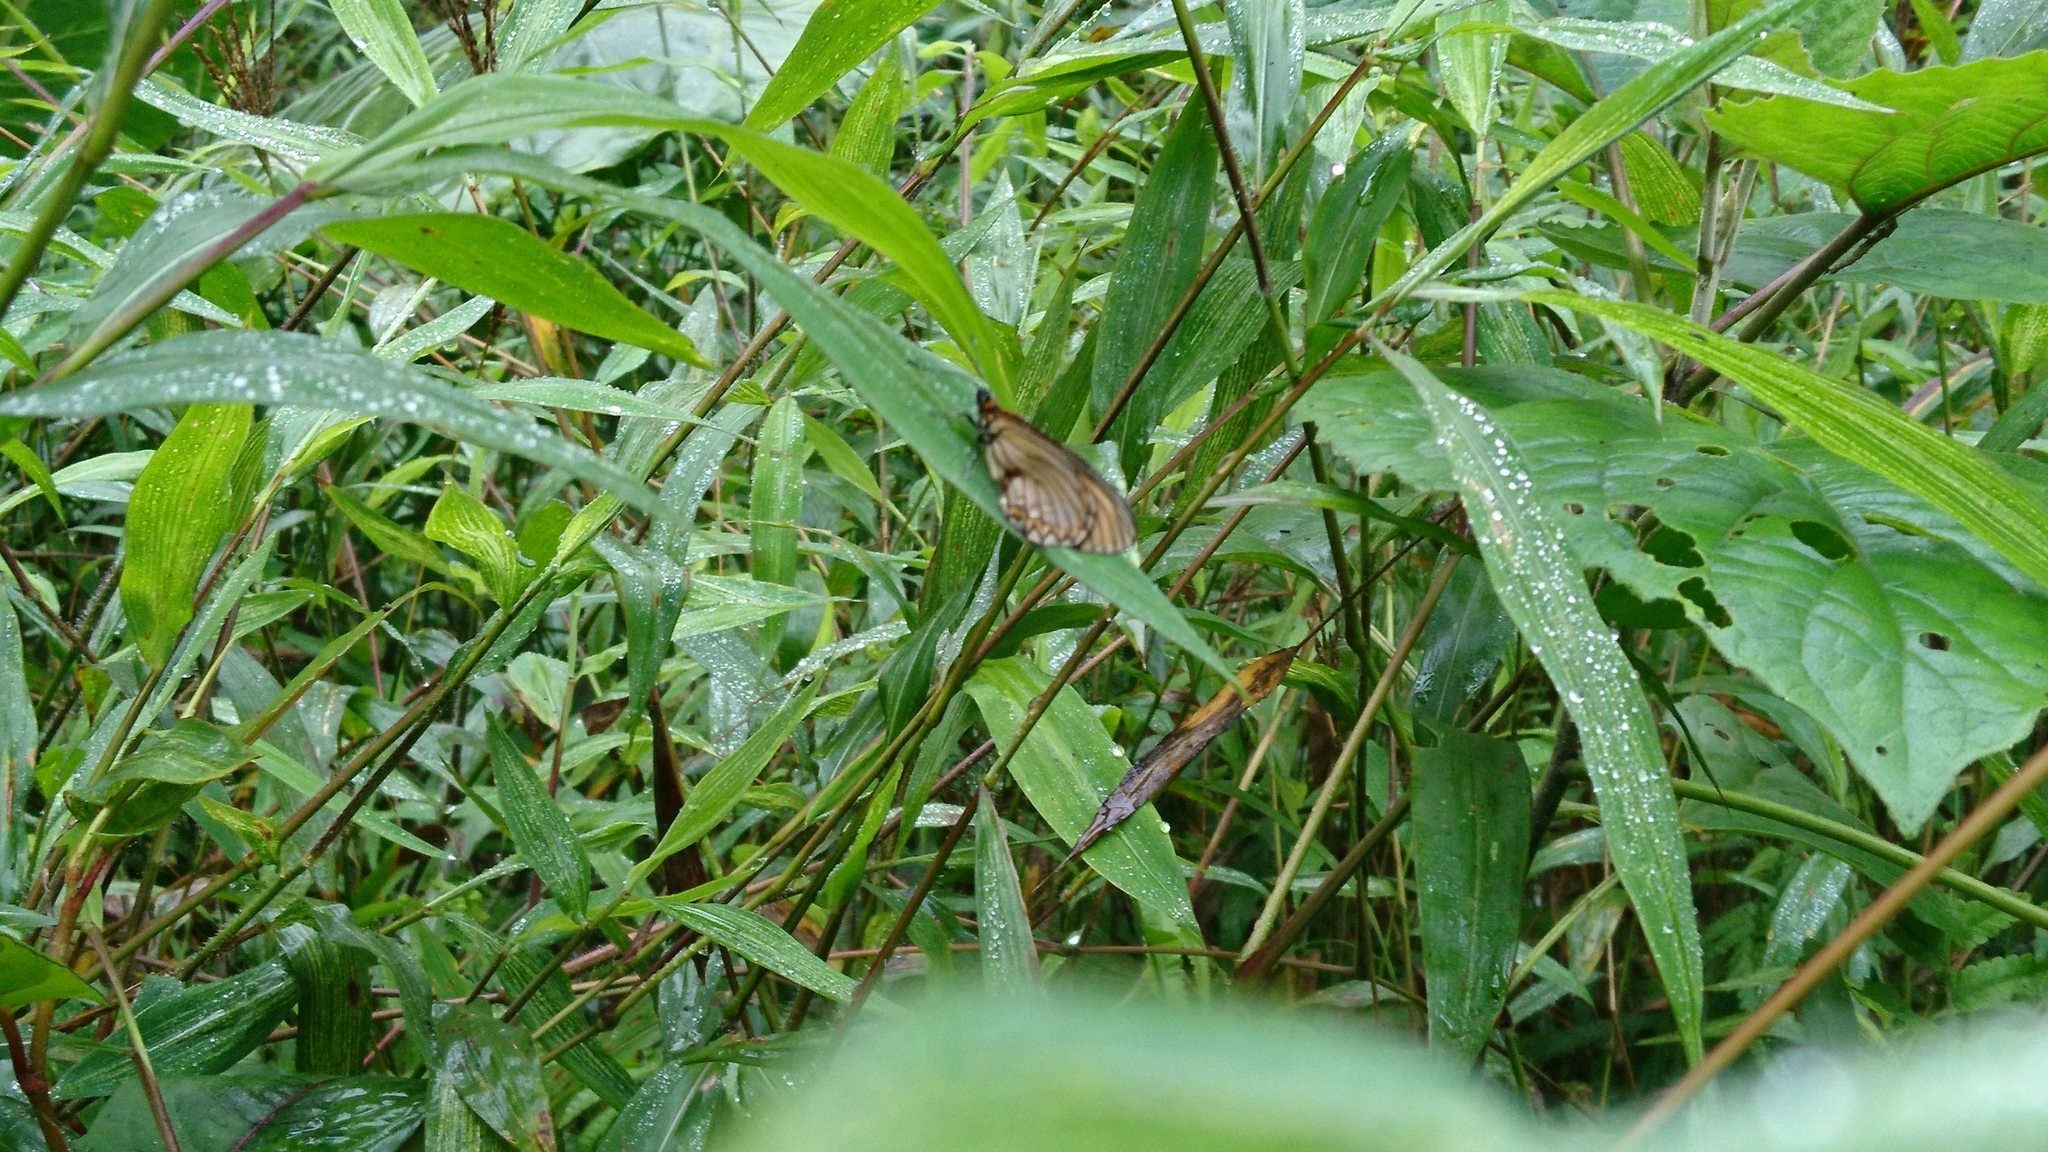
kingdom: Animalia
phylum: Arthropoda
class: Insecta
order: Lepidoptera
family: Nymphalidae
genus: Acraea
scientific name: Acraea Telchinia issoria
